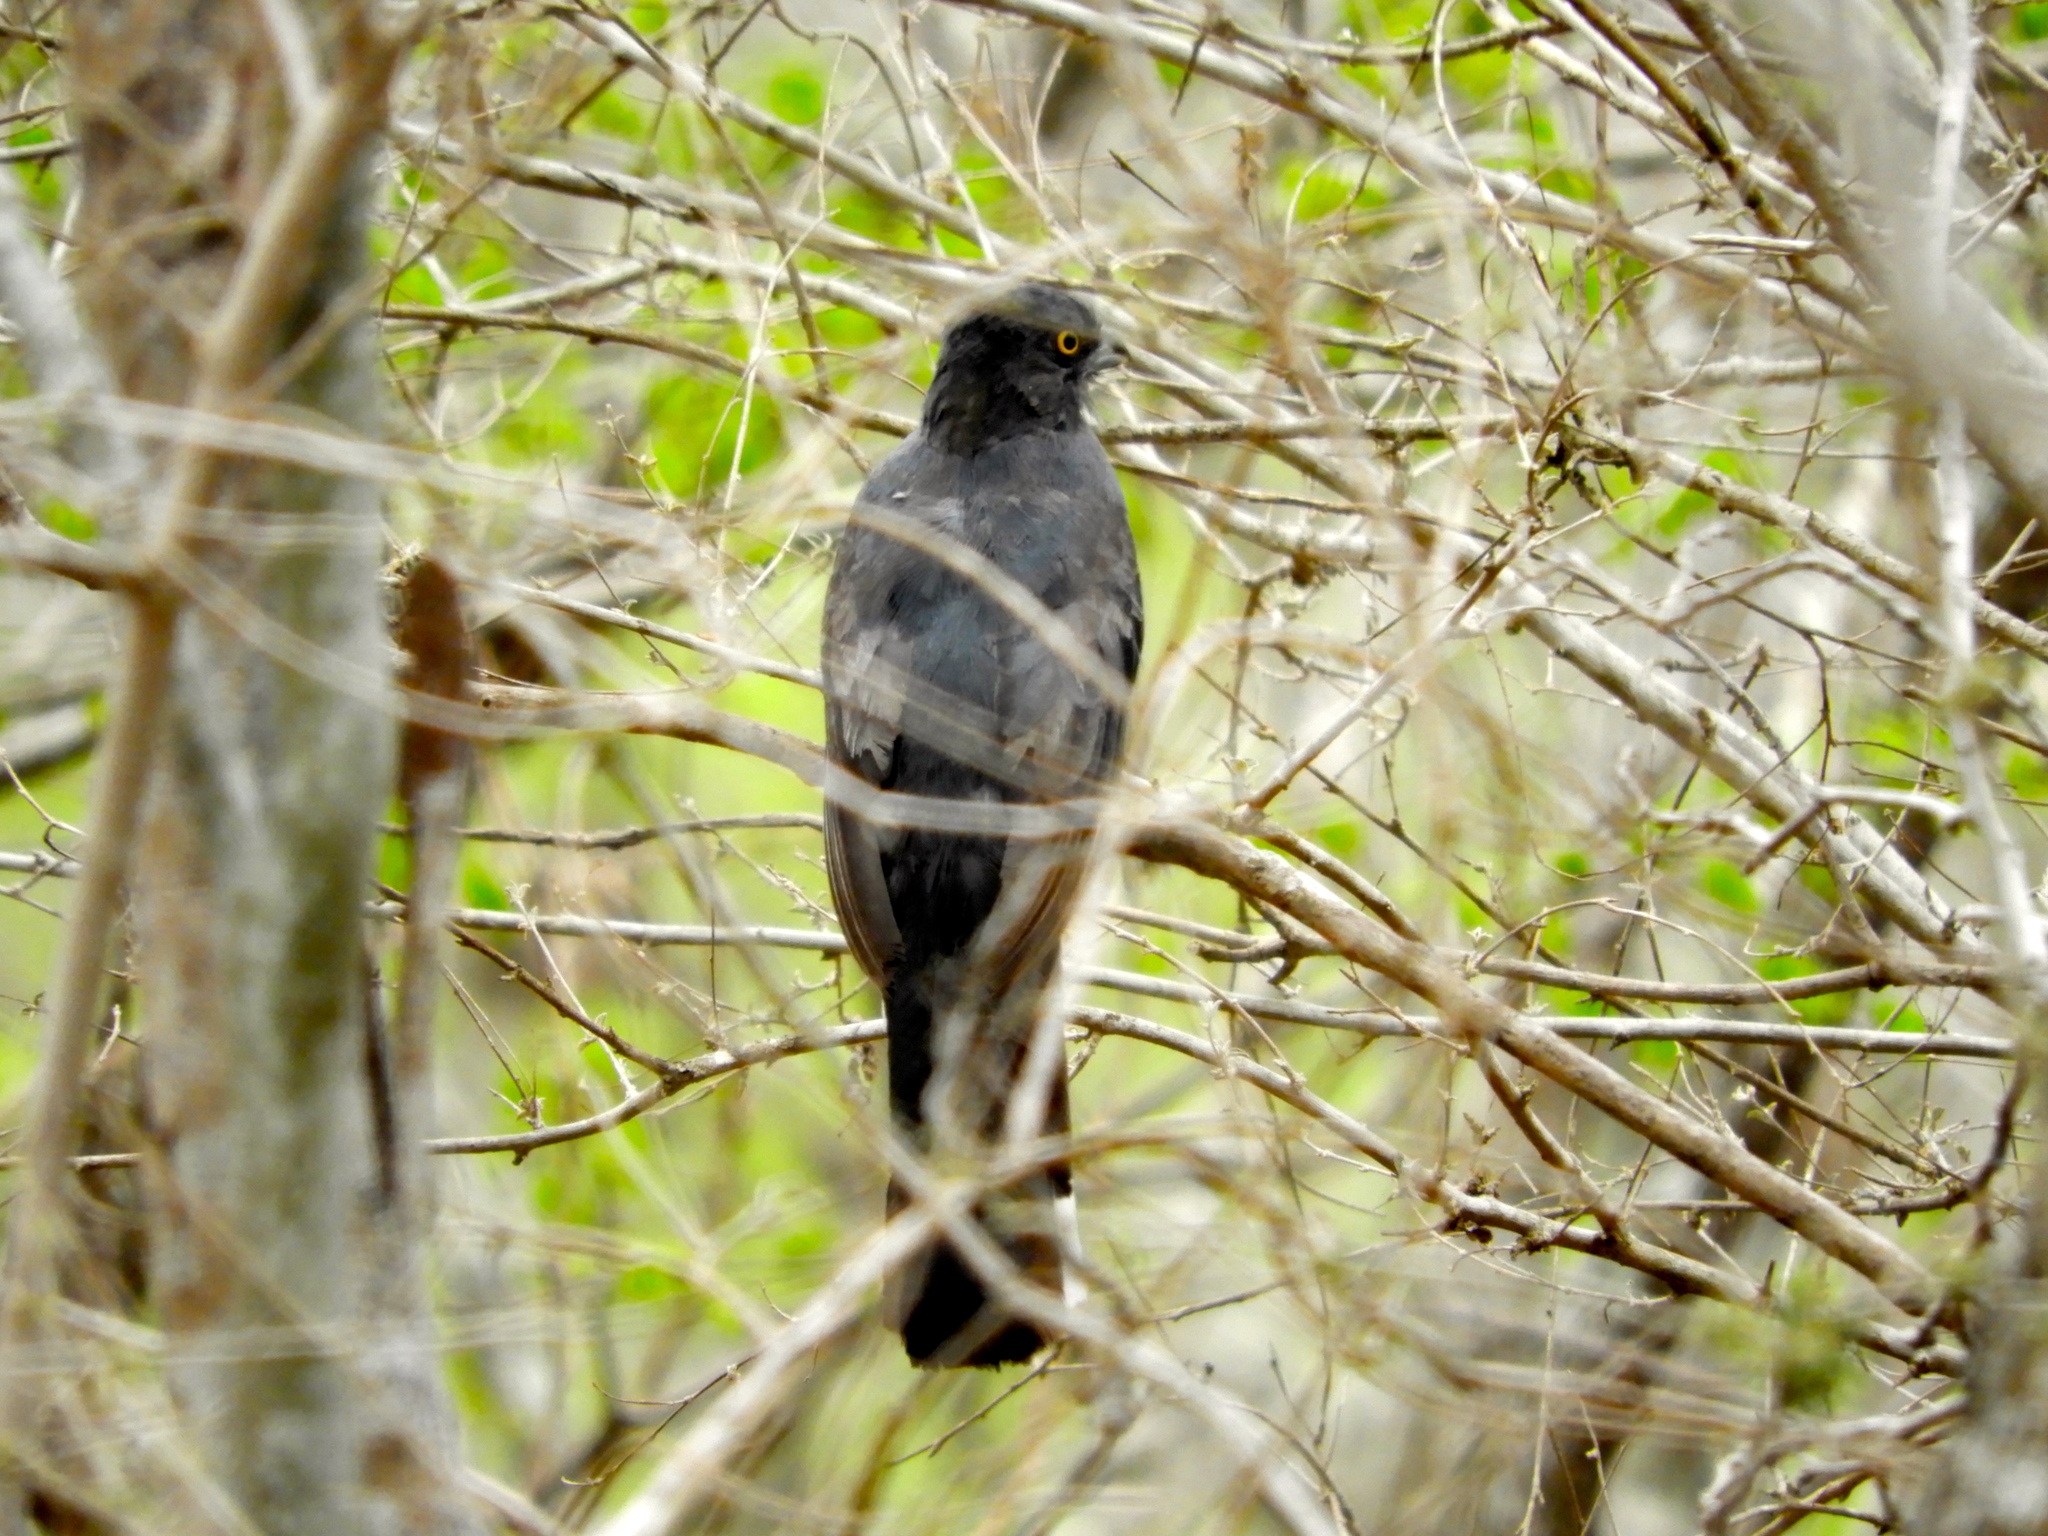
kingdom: Animalia
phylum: Chordata
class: Aves
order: Trogoniformes
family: Trogonidae
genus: Trogon
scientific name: Trogon citreolus
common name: Citreoline trogon
